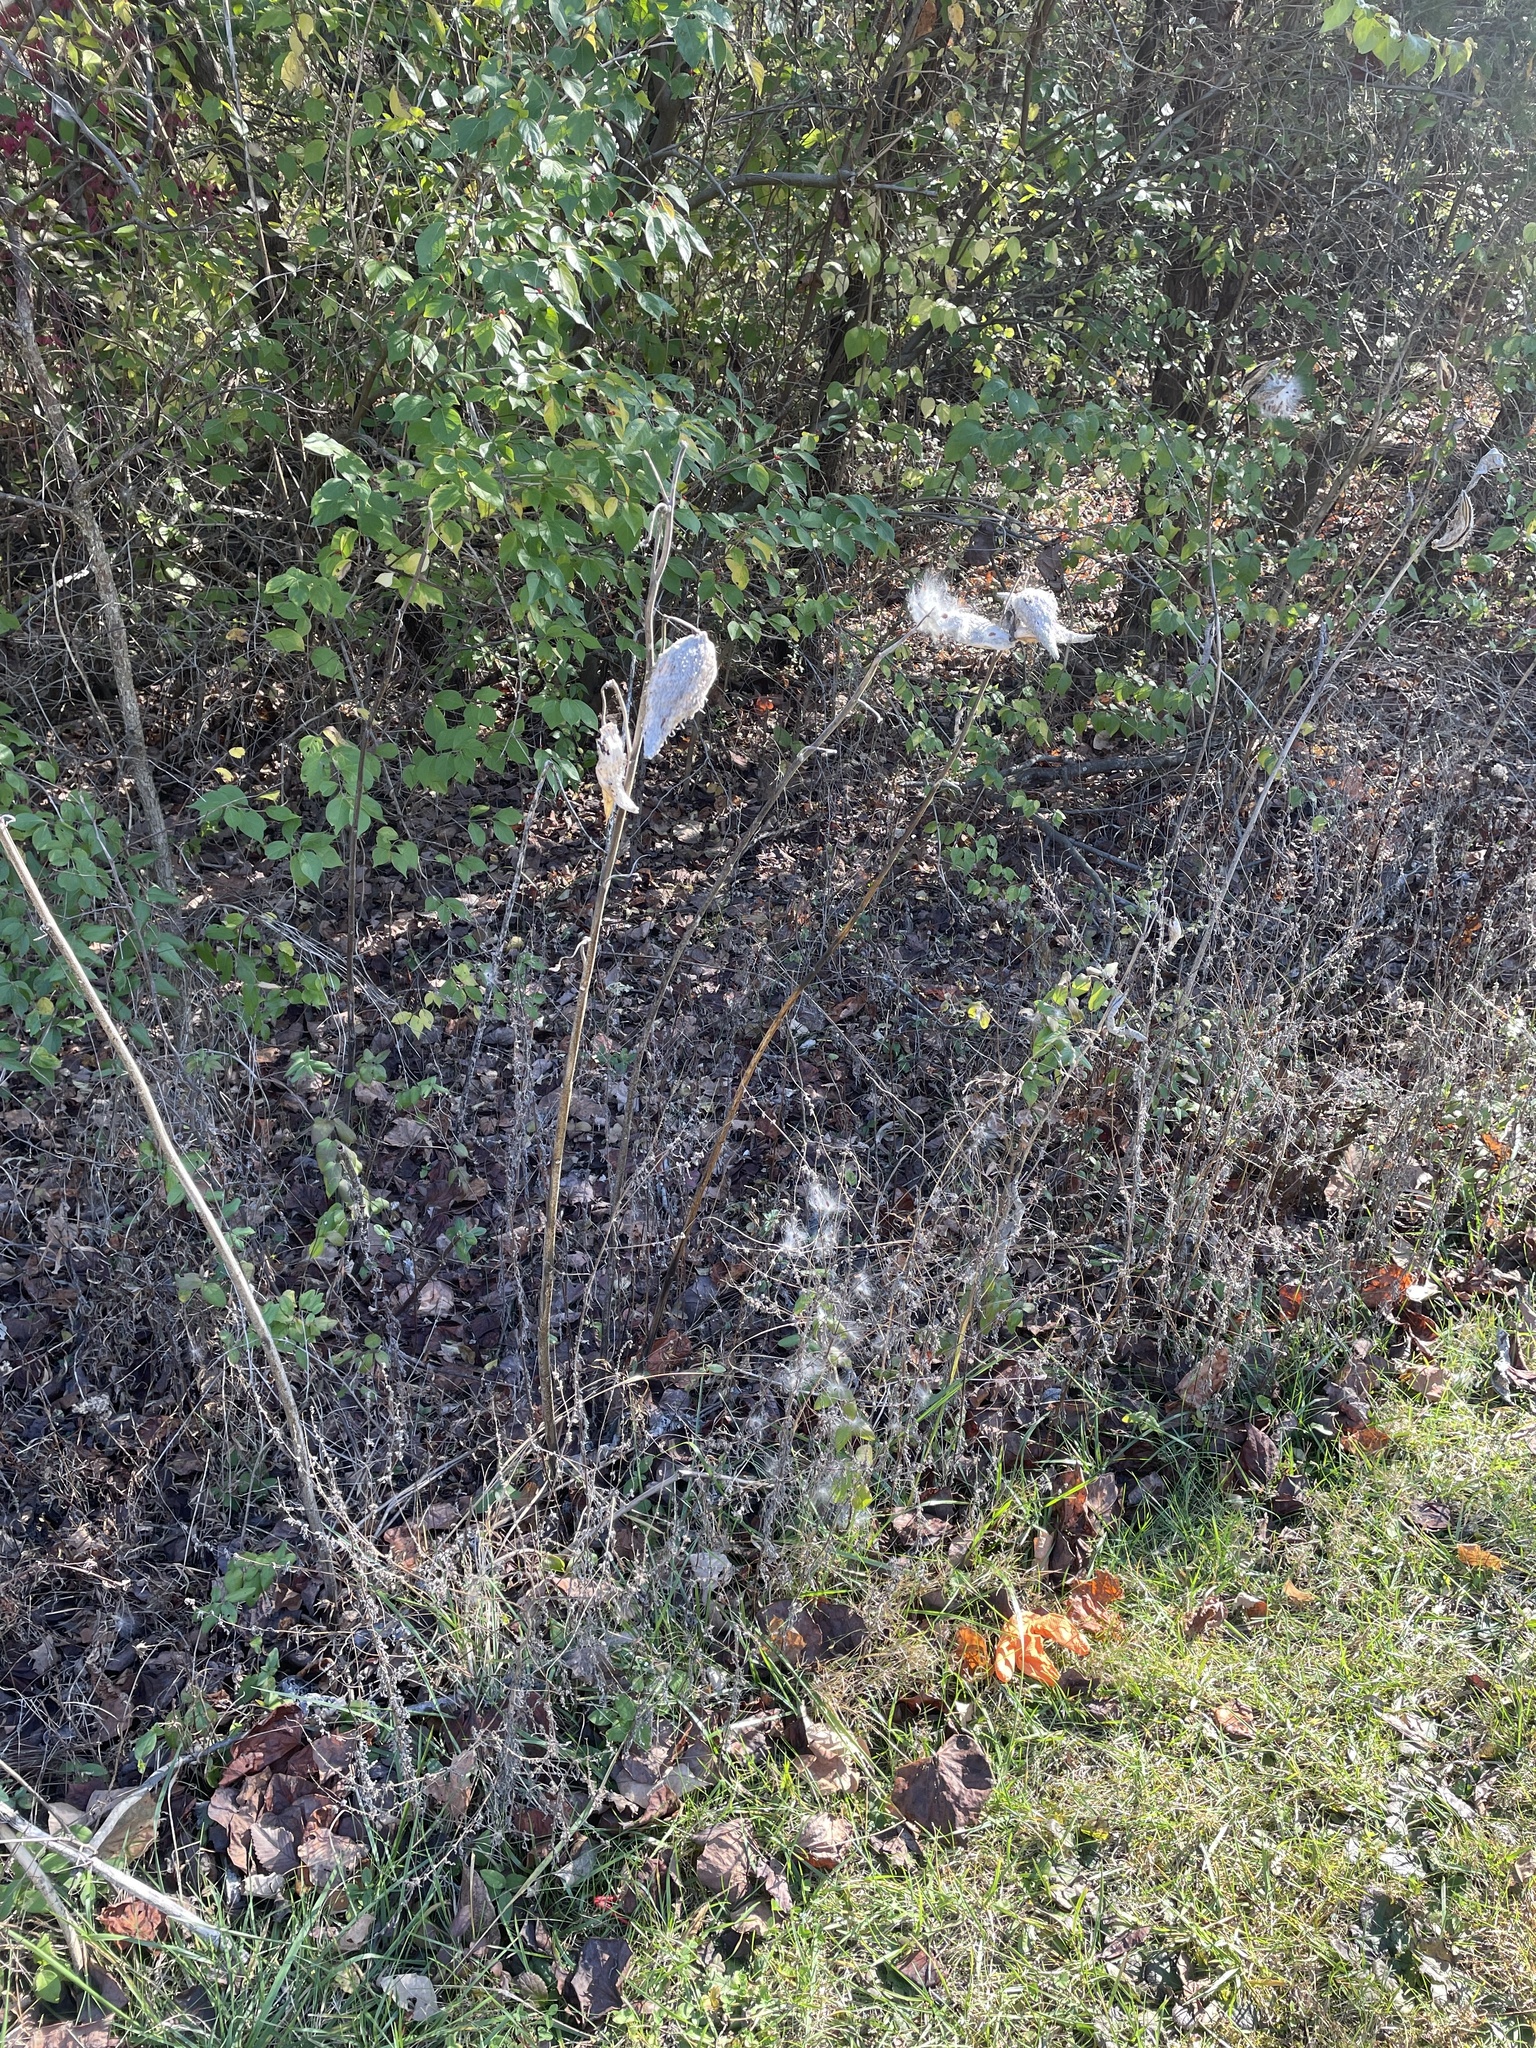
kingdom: Plantae
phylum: Tracheophyta
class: Magnoliopsida
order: Gentianales
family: Apocynaceae
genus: Asclepias
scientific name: Asclepias syriaca
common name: Common milkweed
